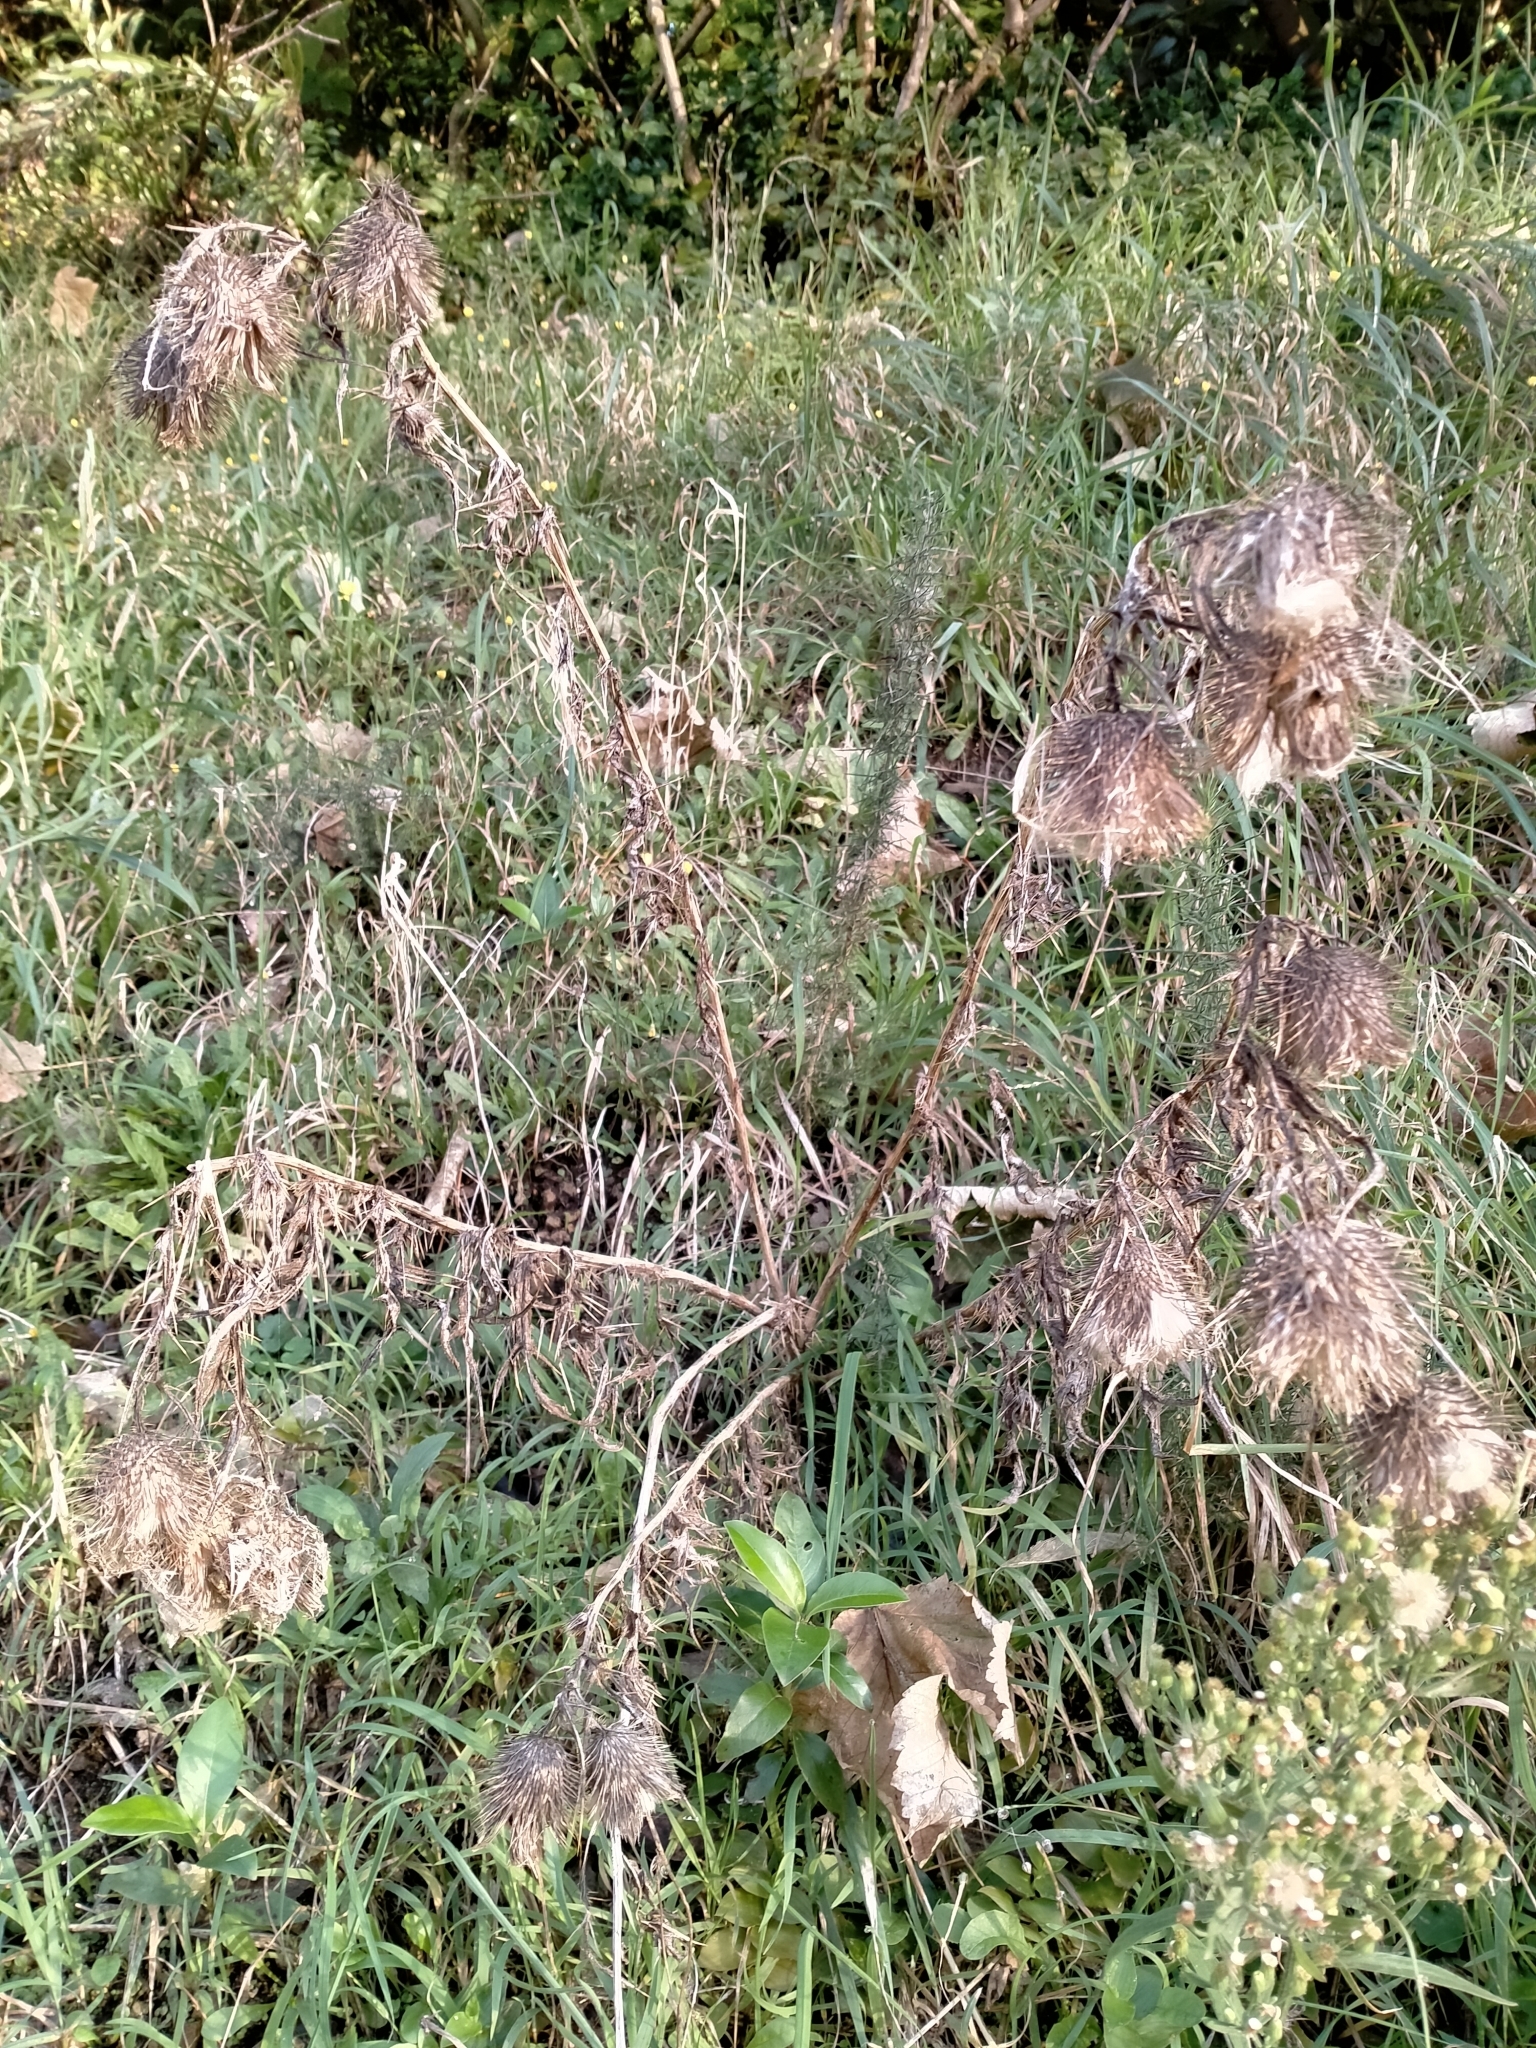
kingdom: Plantae
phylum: Tracheophyta
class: Magnoliopsida
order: Asterales
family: Asteraceae
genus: Cirsium
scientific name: Cirsium vulgare
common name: Bull thistle
